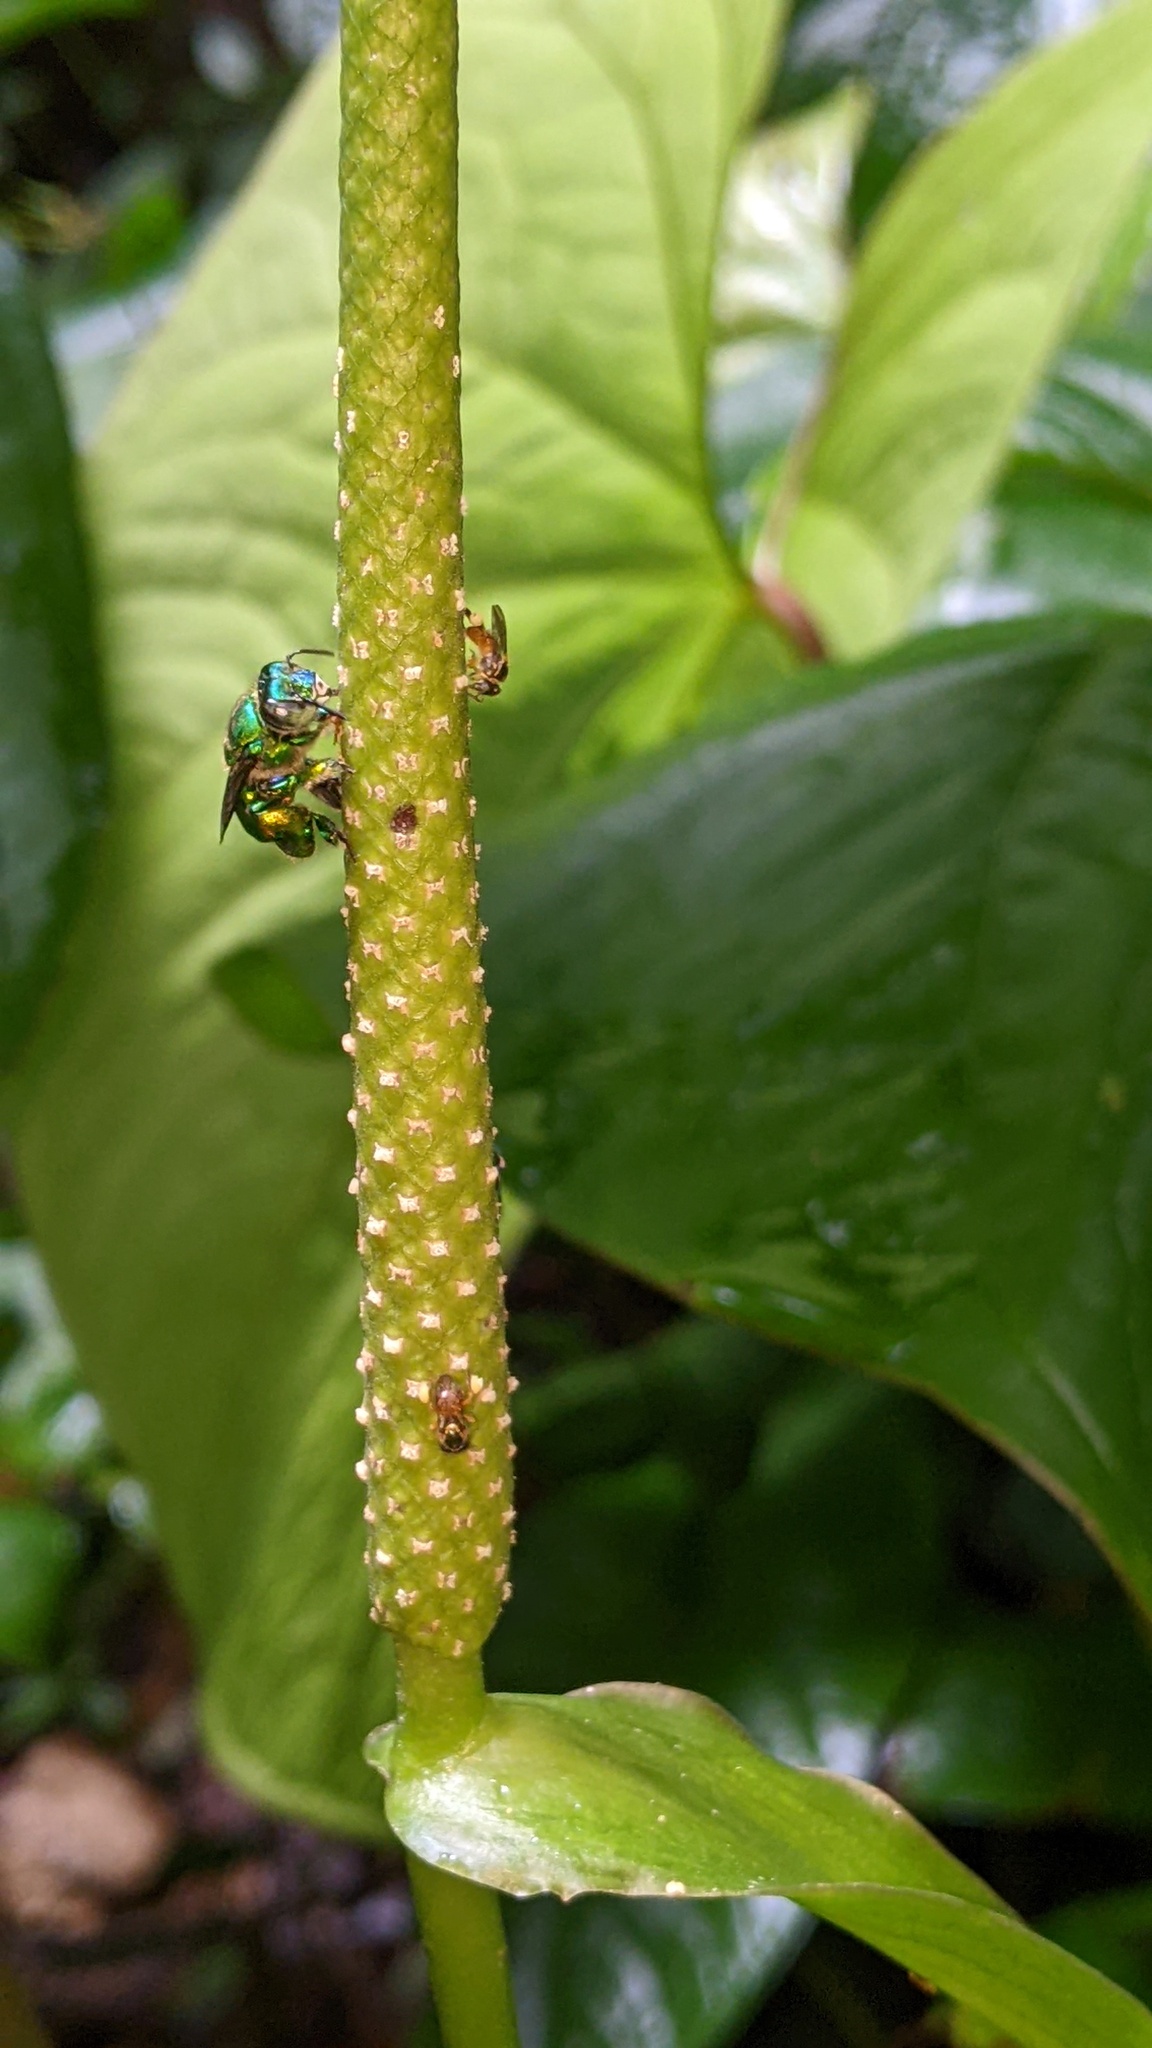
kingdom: Plantae
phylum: Tracheophyta
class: Liliopsida
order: Alismatales
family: Araceae
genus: Anthurium
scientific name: Anthurium sagittatum
